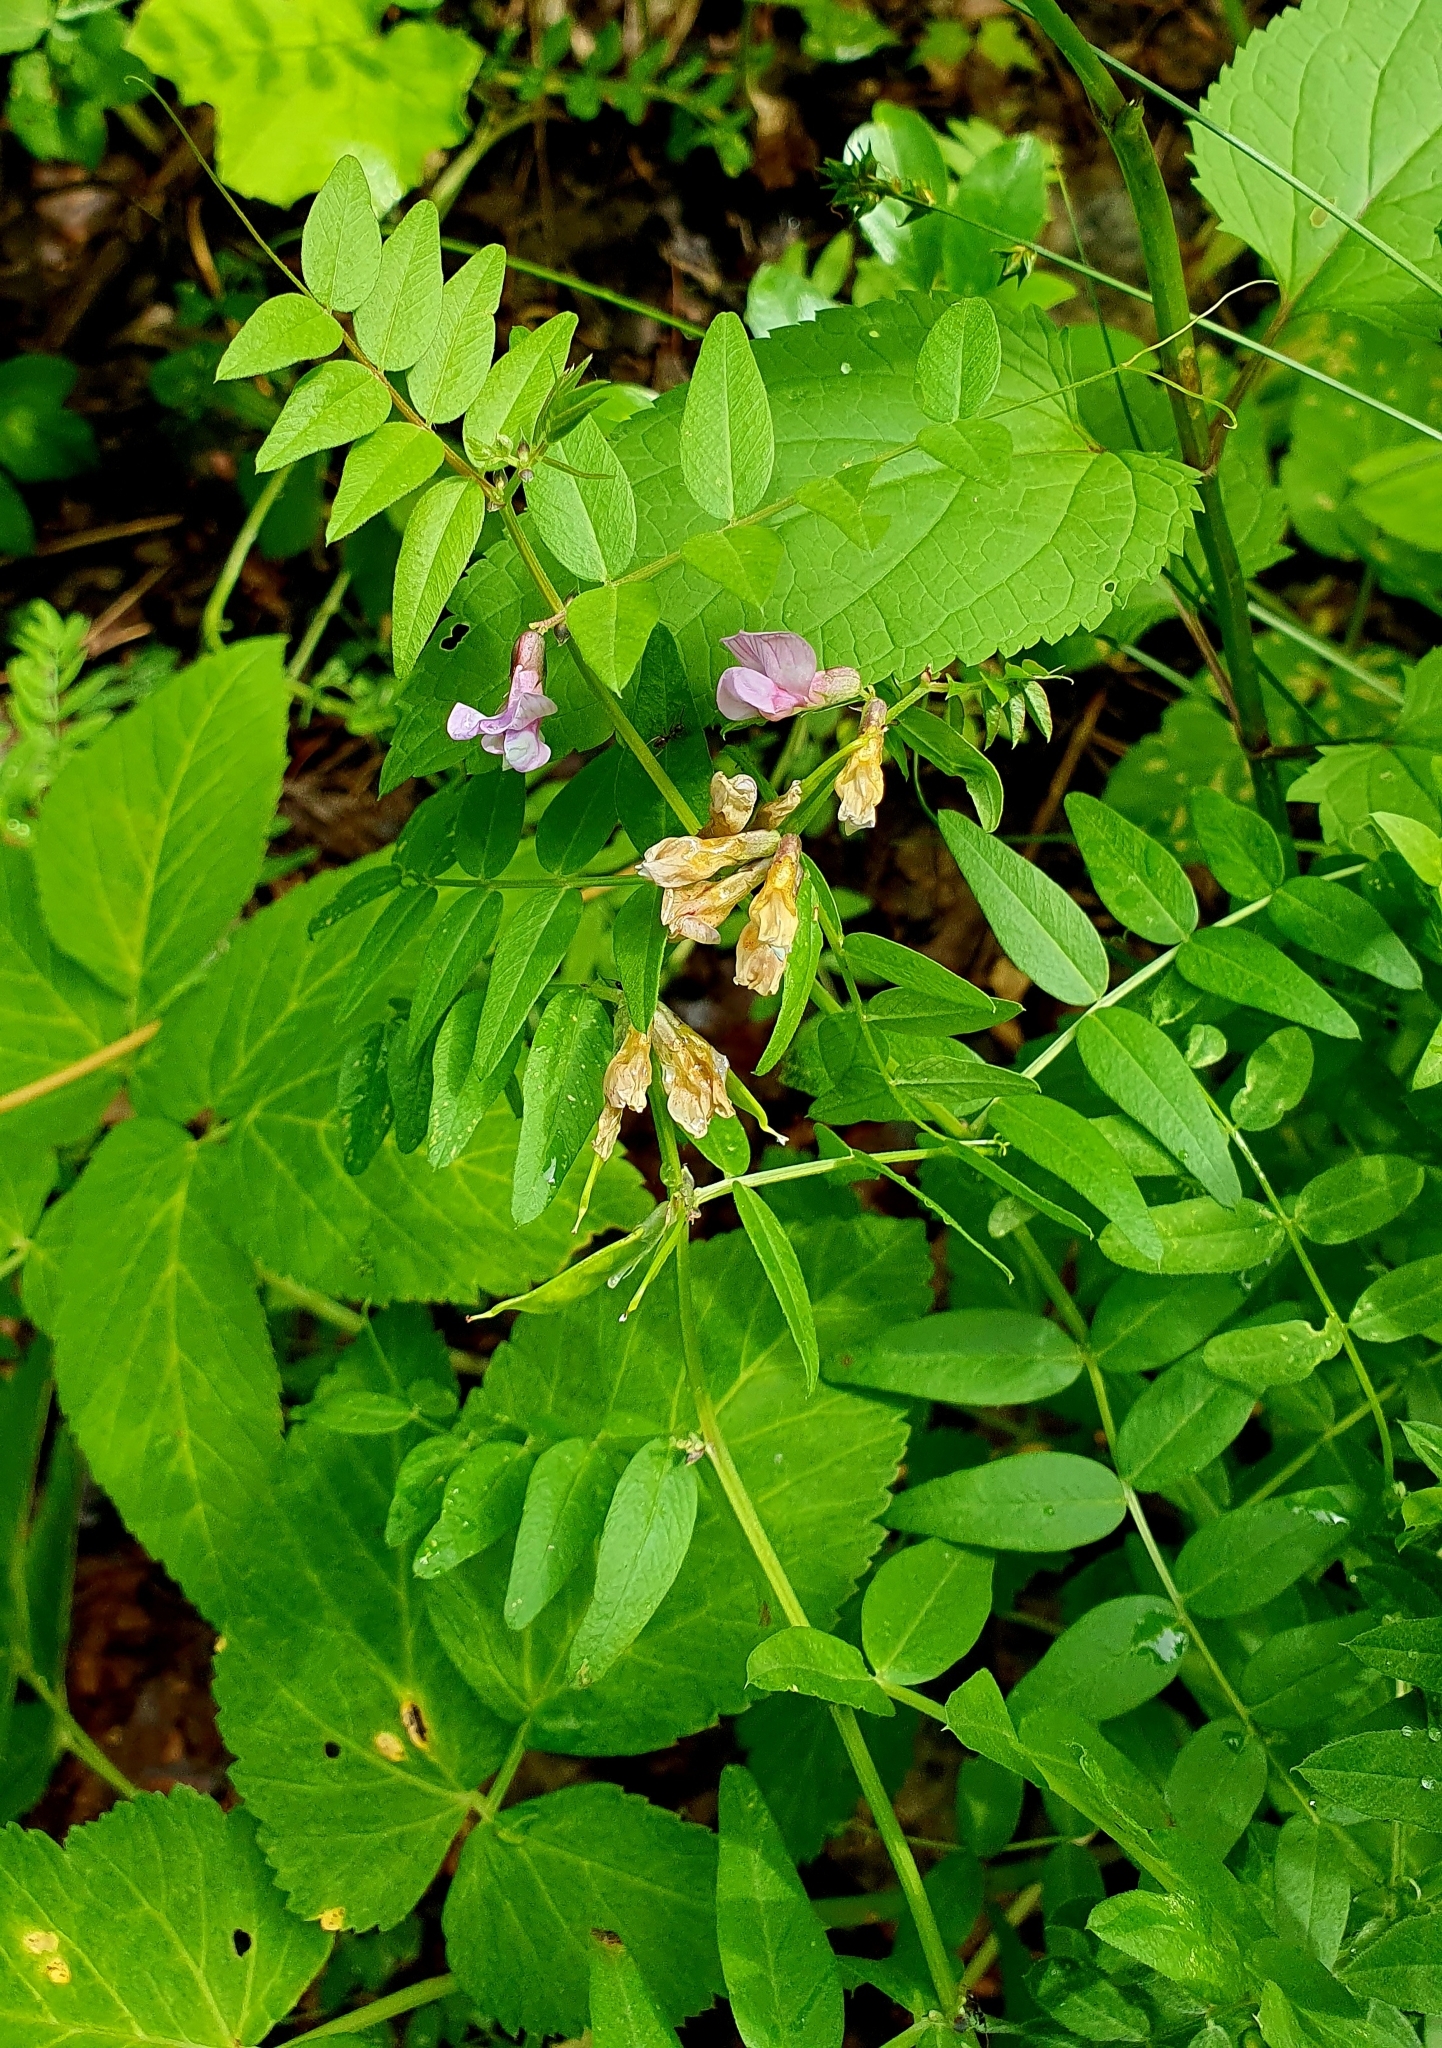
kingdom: Plantae
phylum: Tracheophyta
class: Magnoliopsida
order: Fabales
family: Fabaceae
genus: Vicia
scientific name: Vicia sepium
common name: Bush vetch
